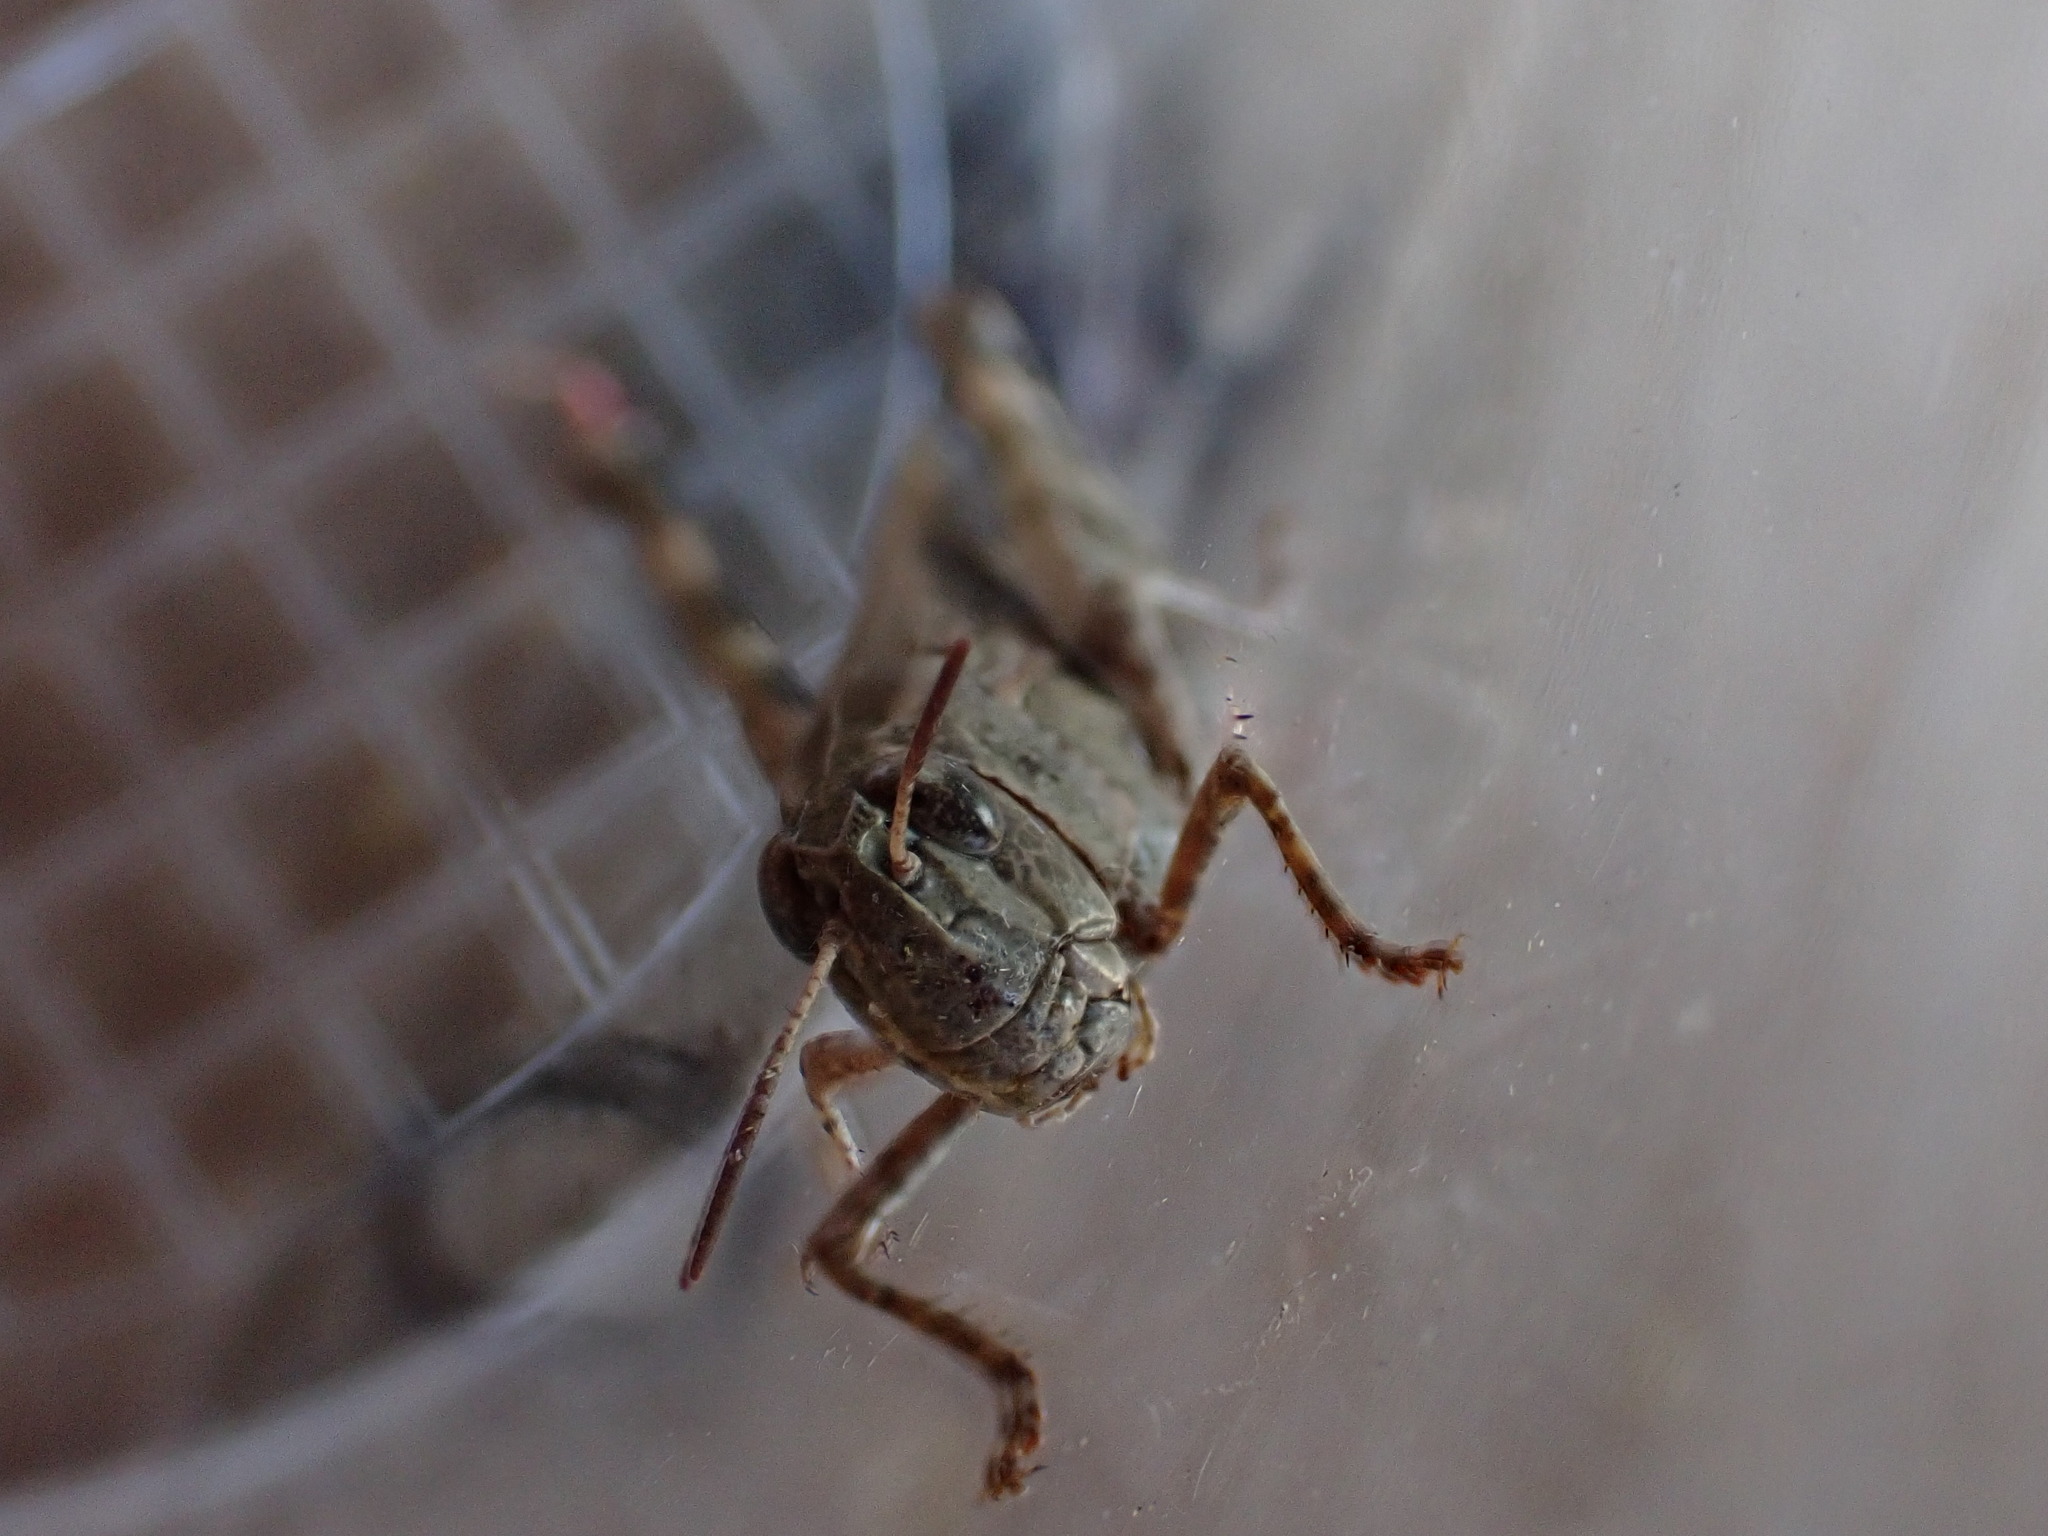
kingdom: Animalia
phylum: Arthropoda
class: Insecta
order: Orthoptera
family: Acrididae
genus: Aiolopus
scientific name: Aiolopus strepens
